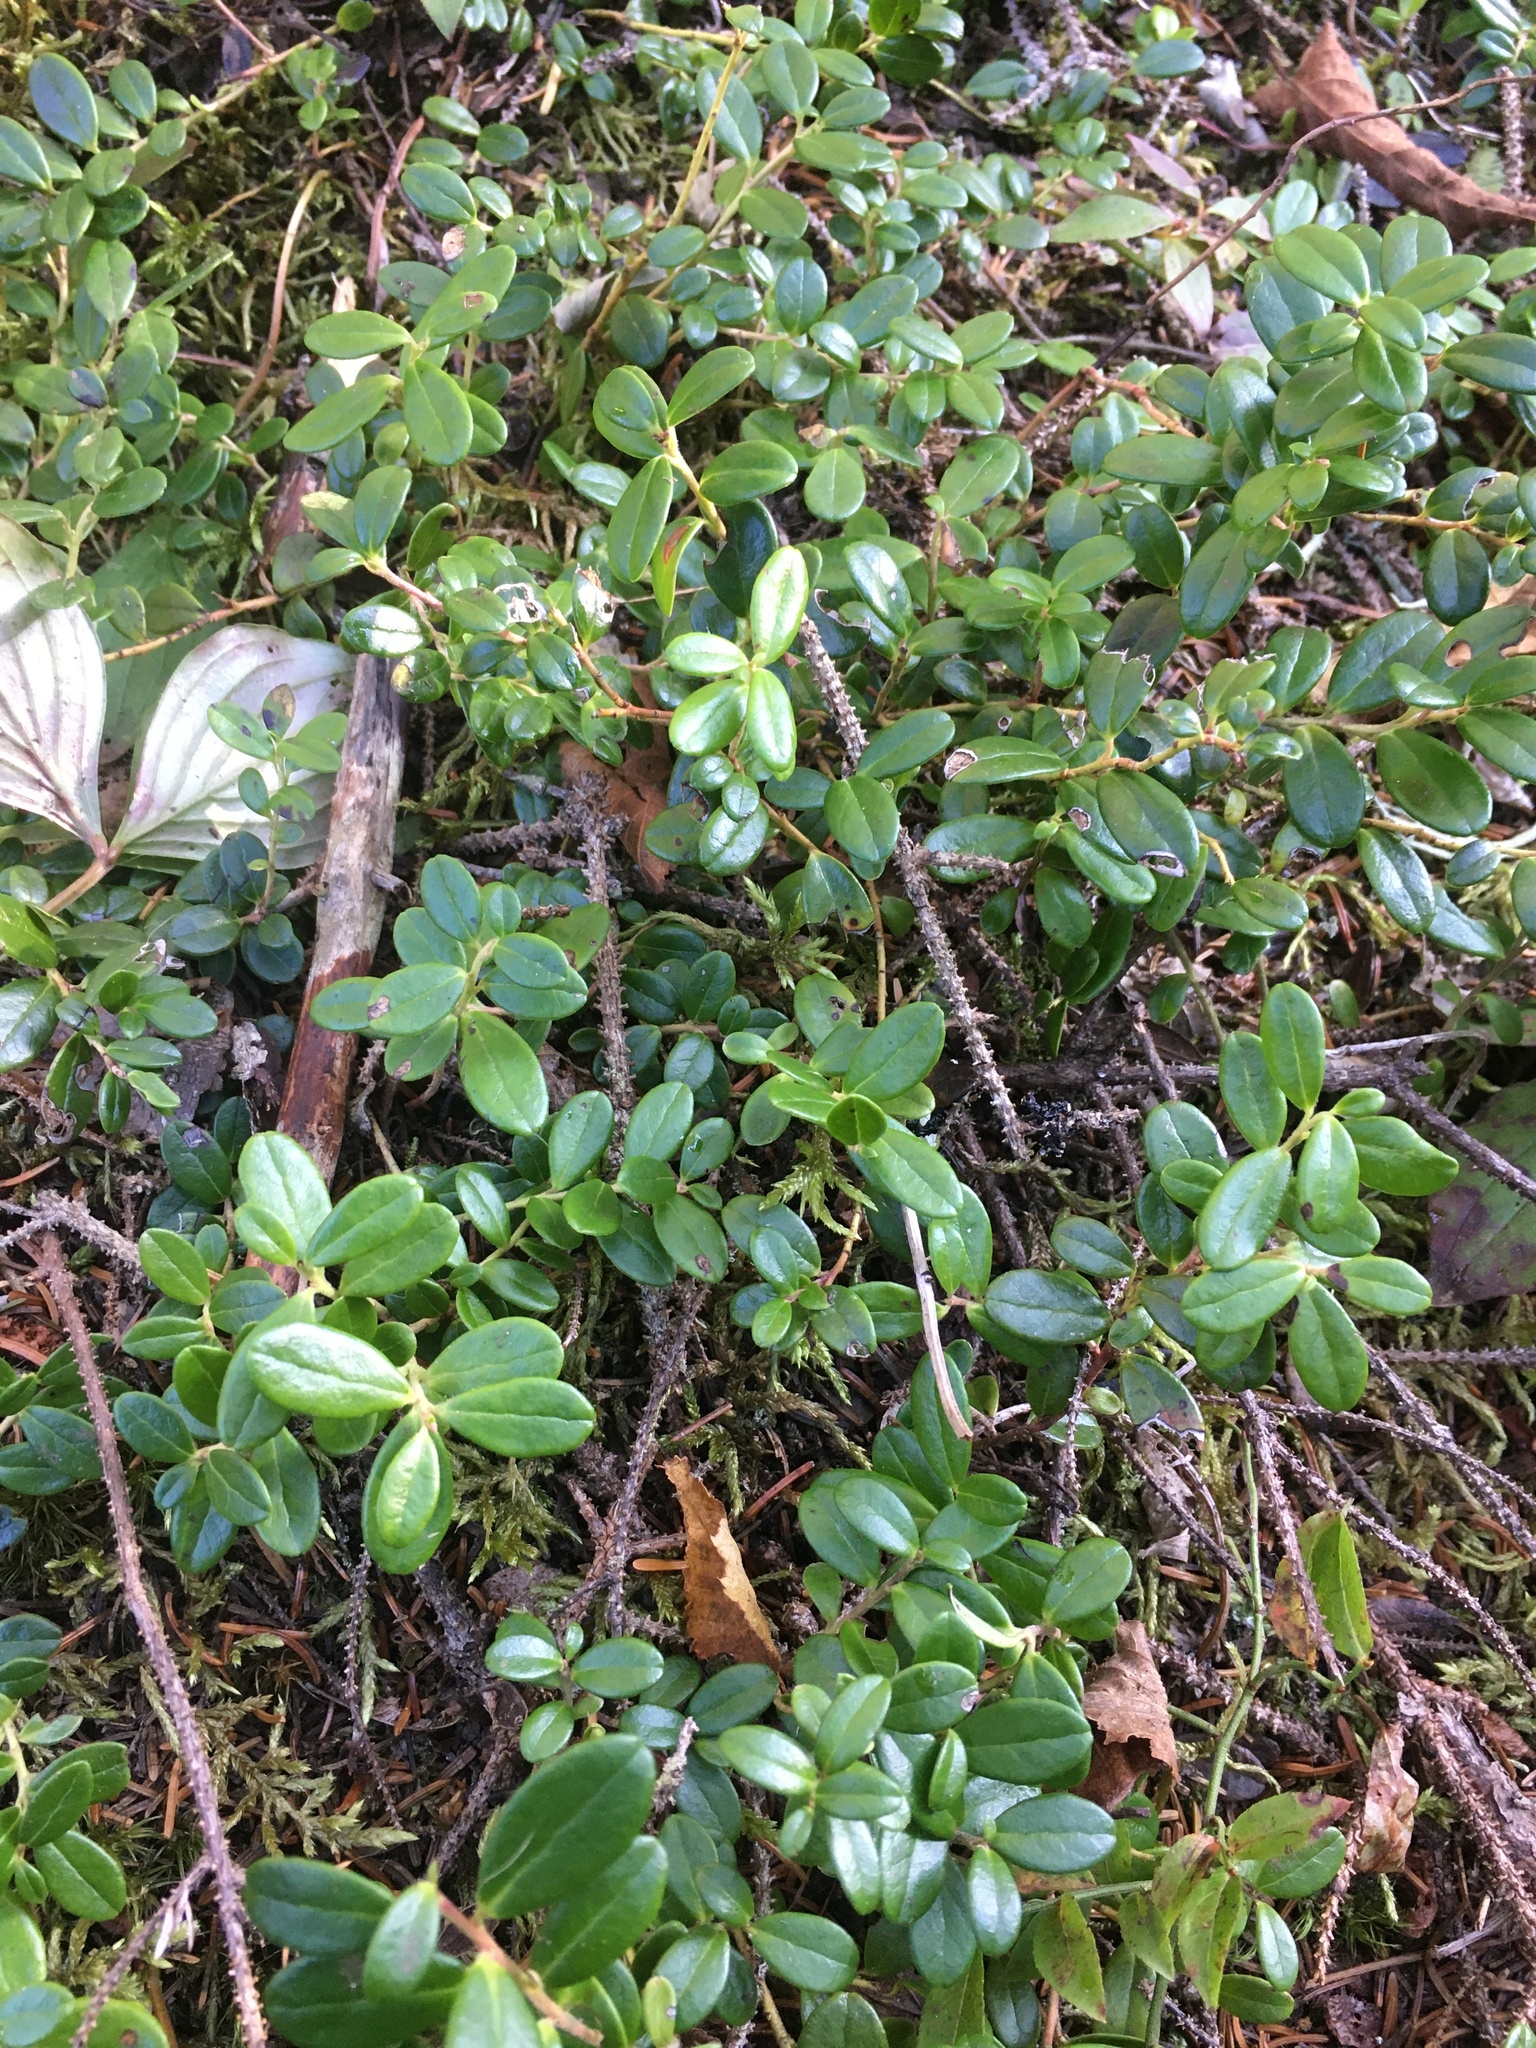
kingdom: Plantae
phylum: Tracheophyta
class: Magnoliopsida
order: Ericales
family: Ericaceae
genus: Vaccinium
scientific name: Vaccinium vitis-idaea
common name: Cowberry
